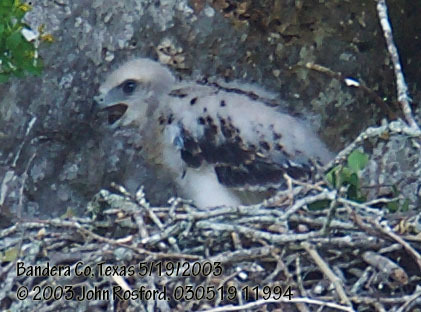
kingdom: Animalia
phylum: Chordata
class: Aves
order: Accipitriformes
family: Accipitridae
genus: Buteo
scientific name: Buteo jamaicensis
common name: Red-tailed hawk
